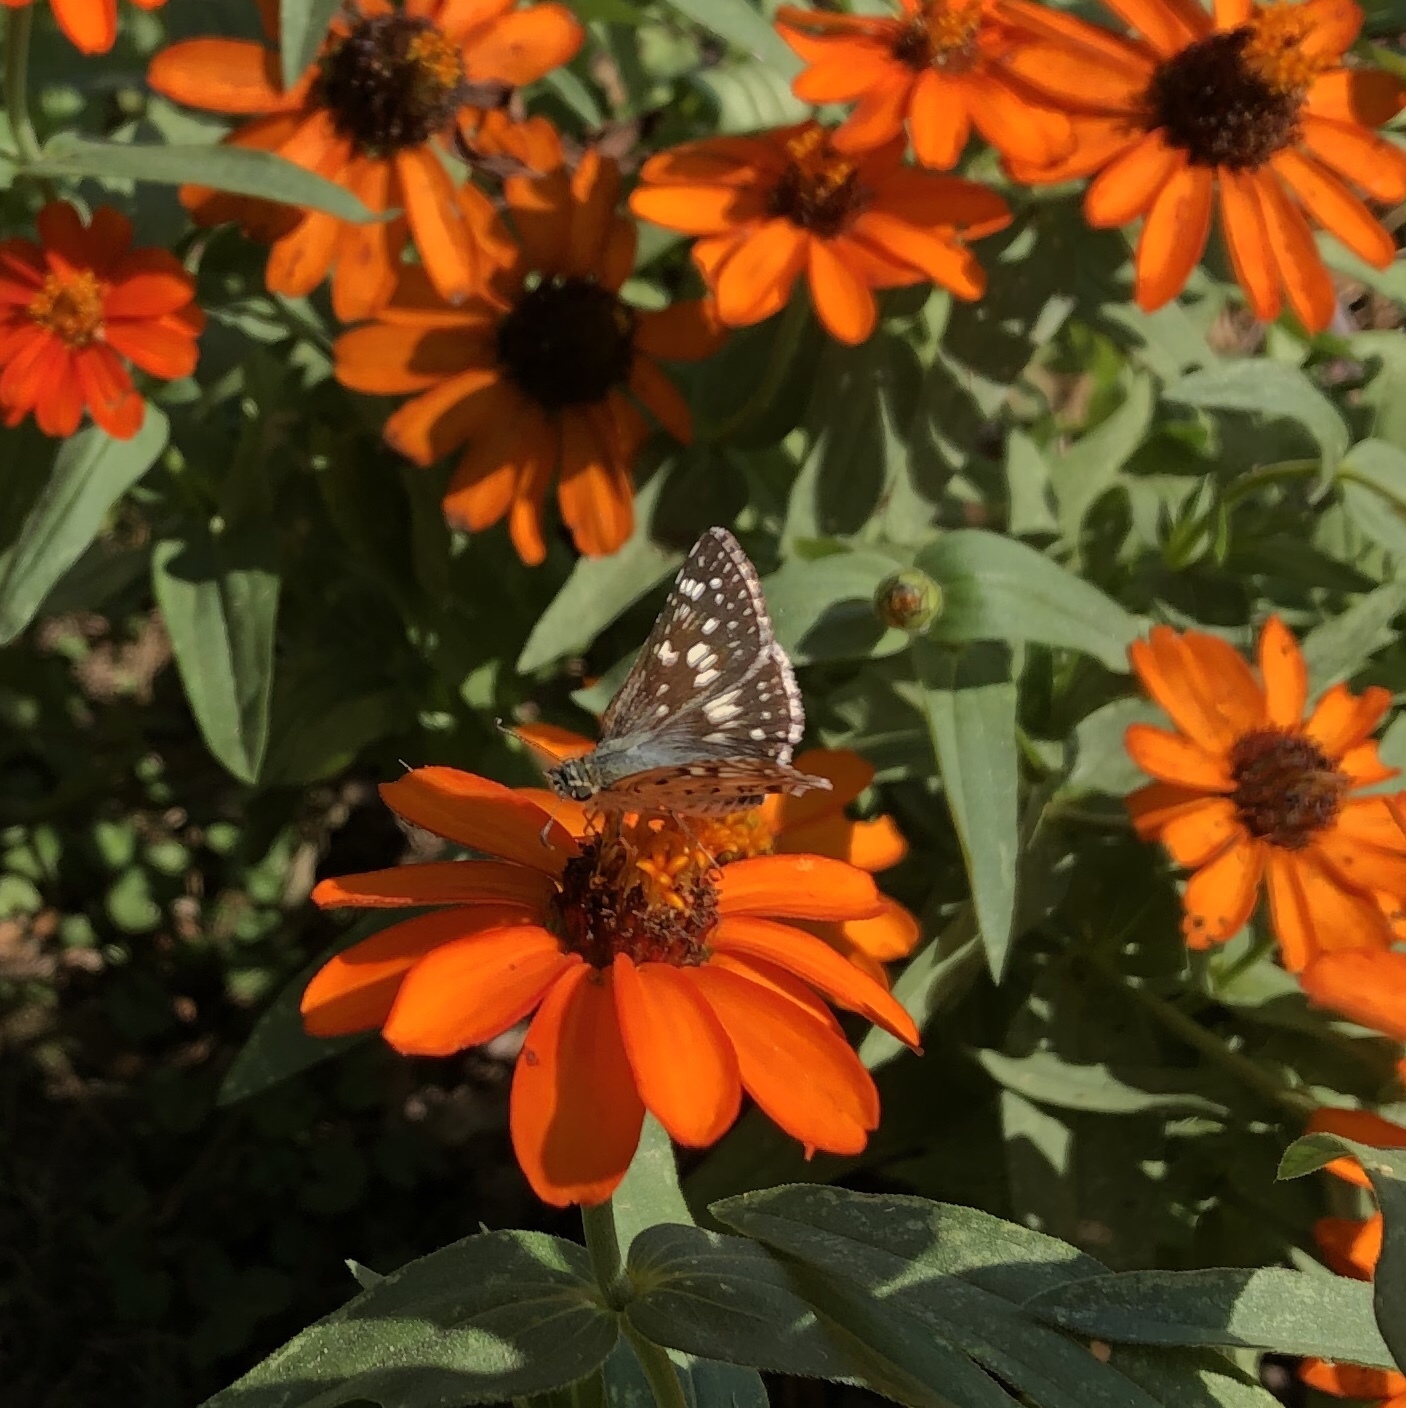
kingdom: Animalia
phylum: Arthropoda
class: Insecta
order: Lepidoptera
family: Hesperiidae
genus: Burnsius
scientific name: Burnsius communis
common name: Common checkered-skipper
